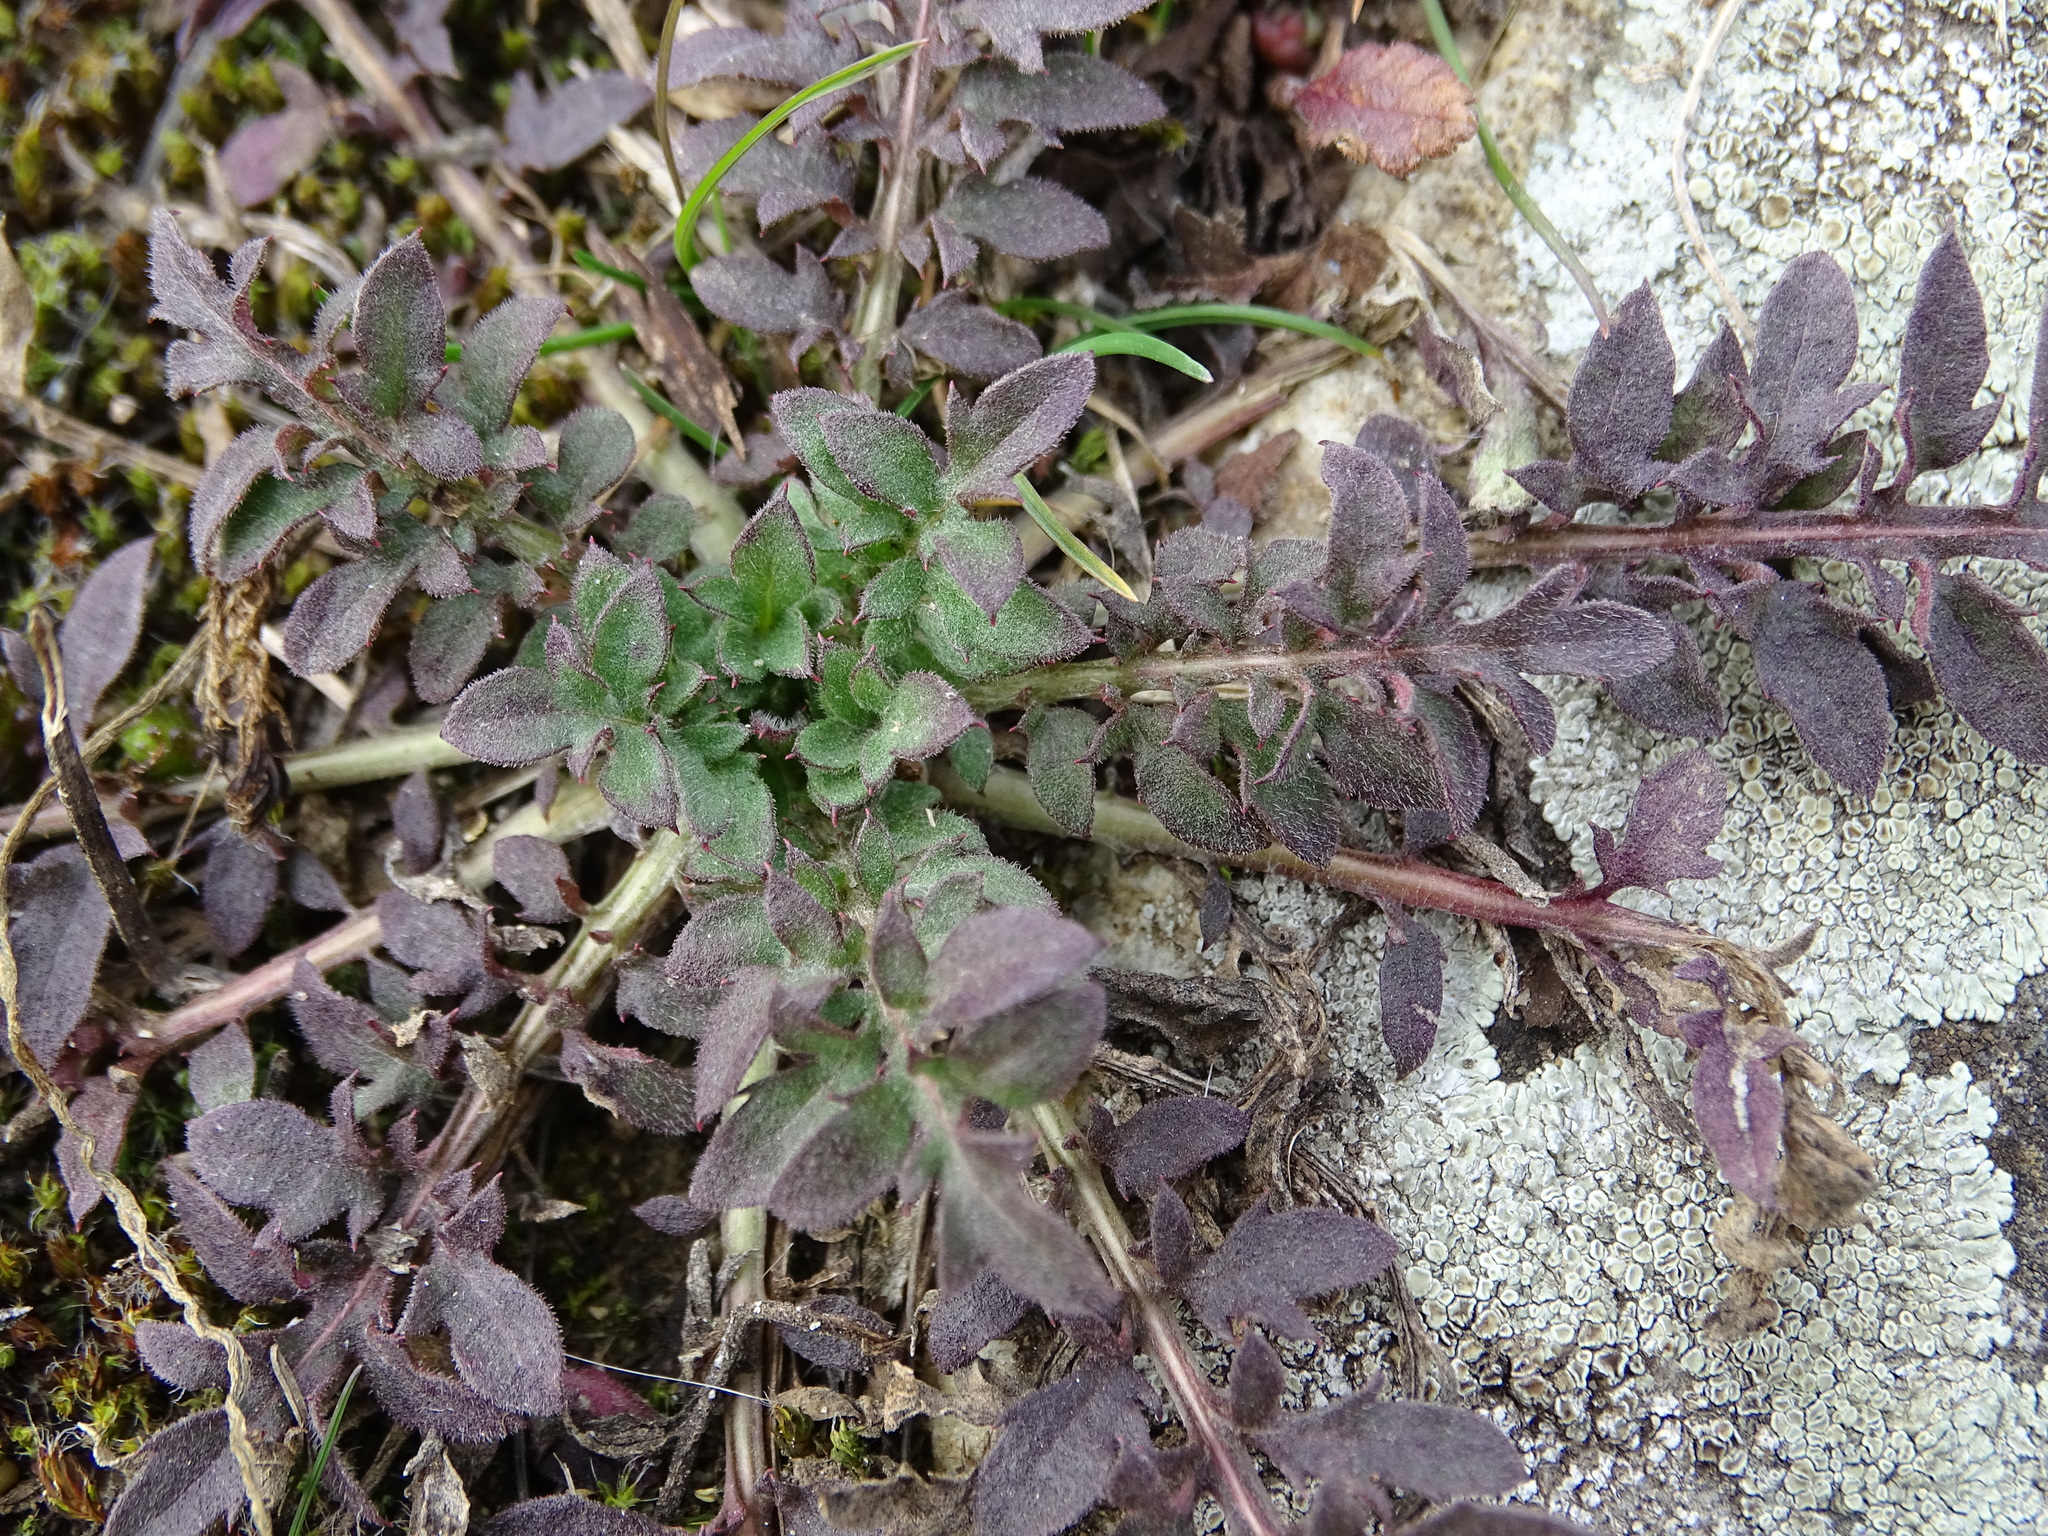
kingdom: Plantae
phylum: Tracheophyta
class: Magnoliopsida
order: Asterales
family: Asteraceae
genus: Centaurea
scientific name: Centaurea stoebe
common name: Spotted knapweed
